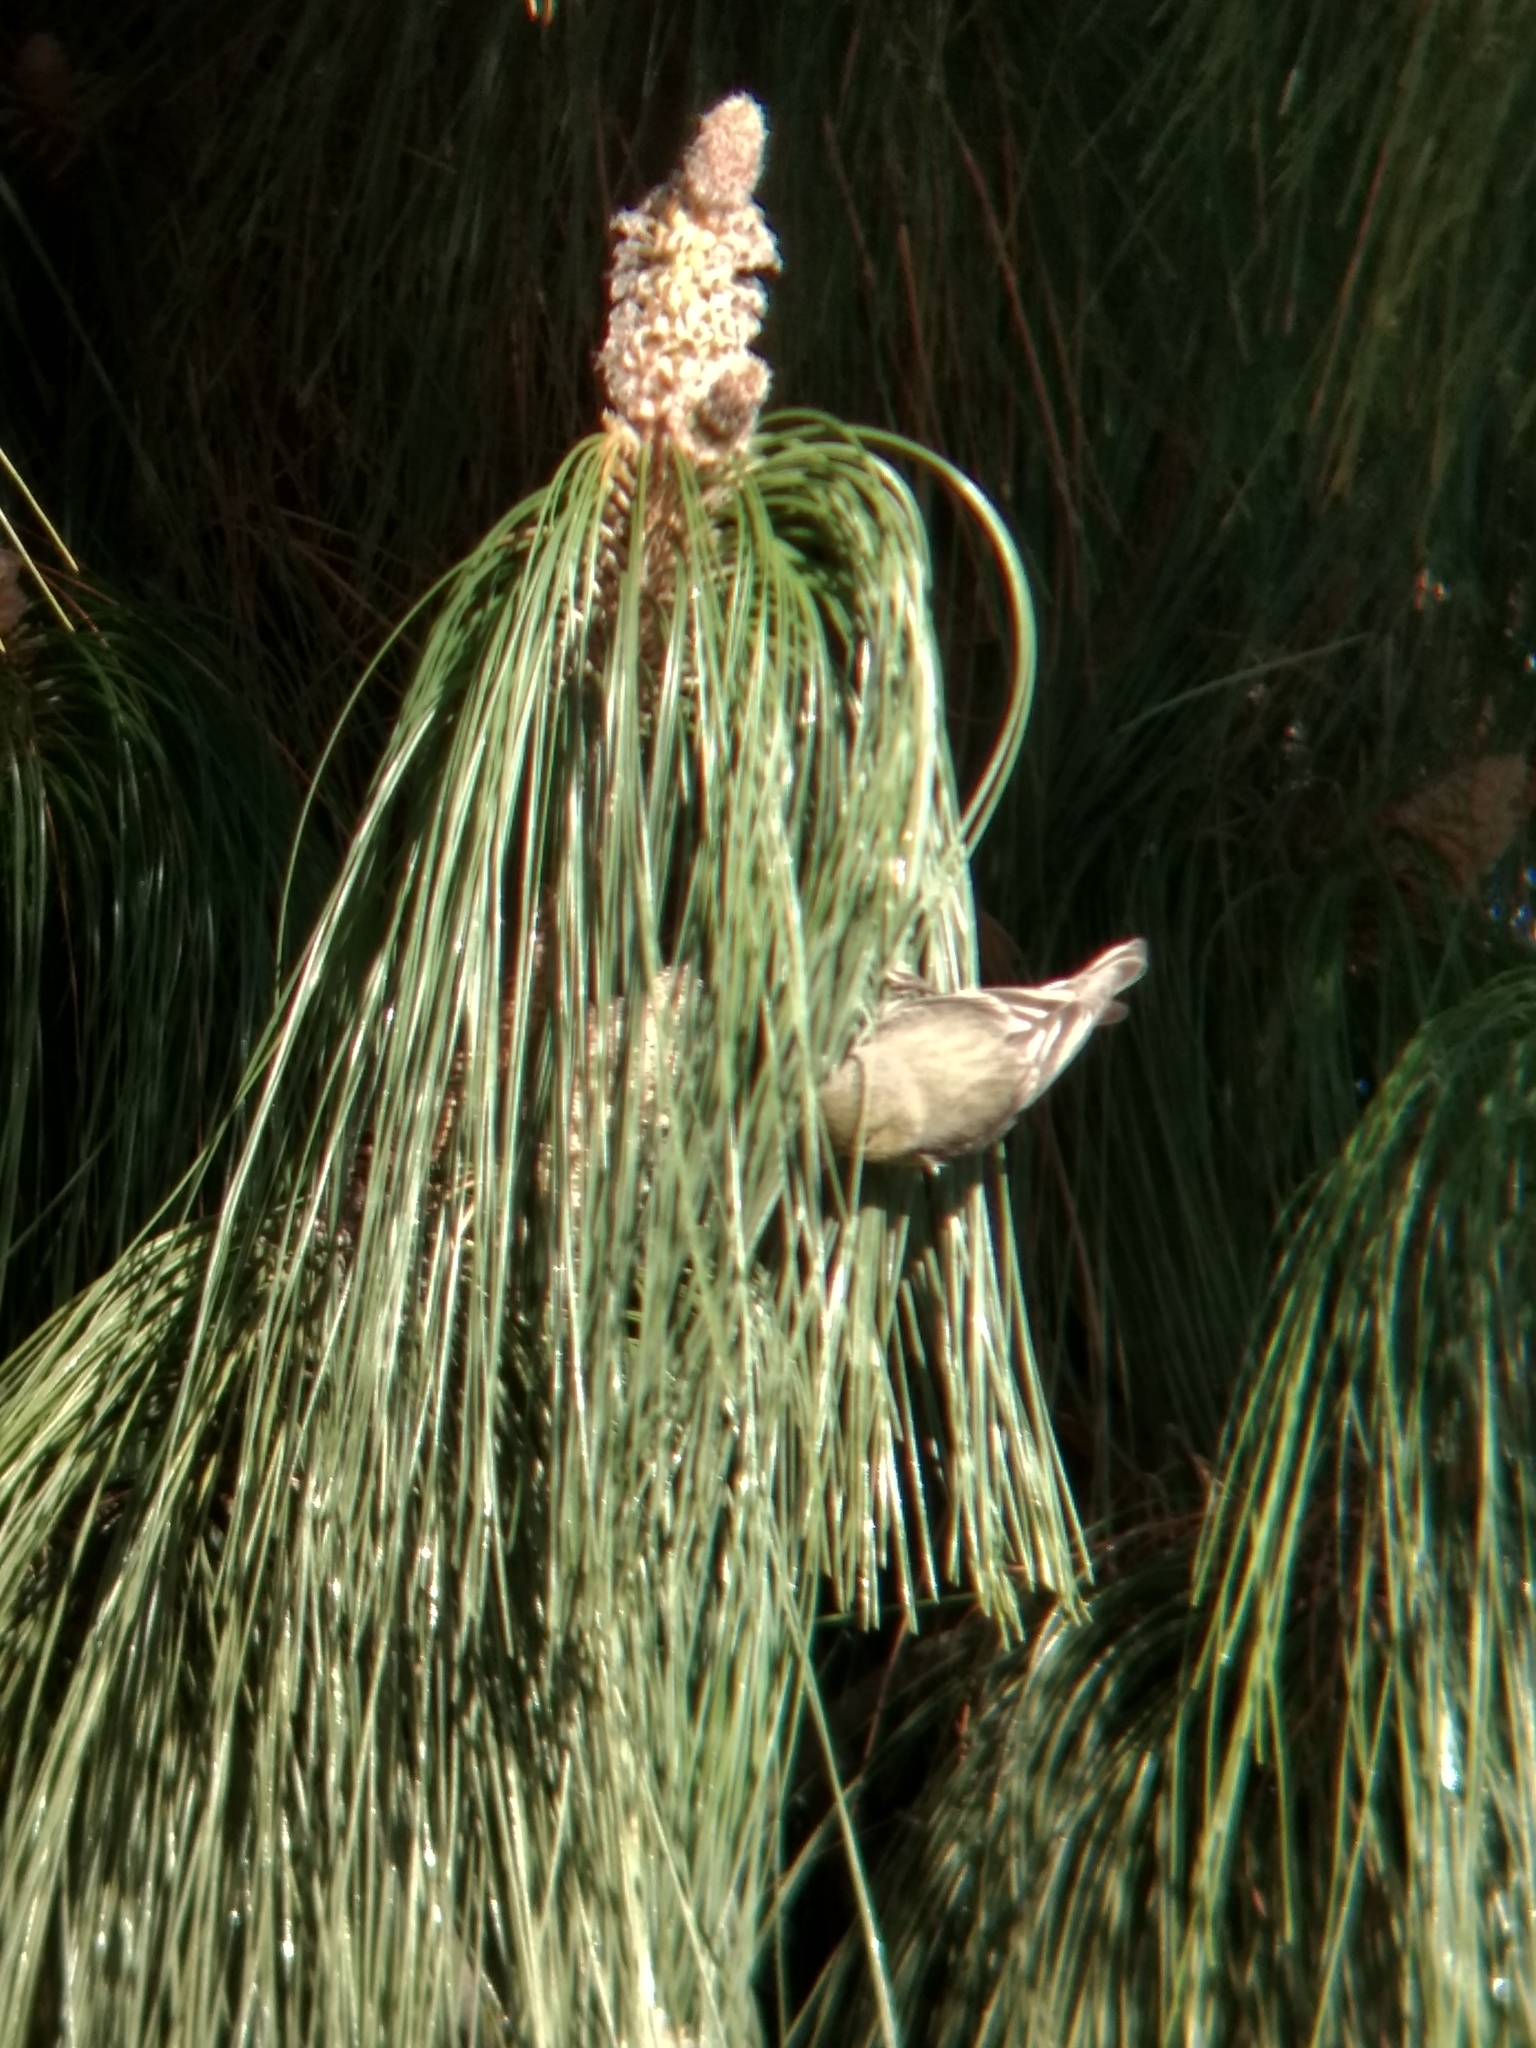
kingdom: Animalia
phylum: Chordata
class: Aves
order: Passeriformes
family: Fringillidae
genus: Spinus
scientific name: Spinus psaltria
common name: Lesser goldfinch
